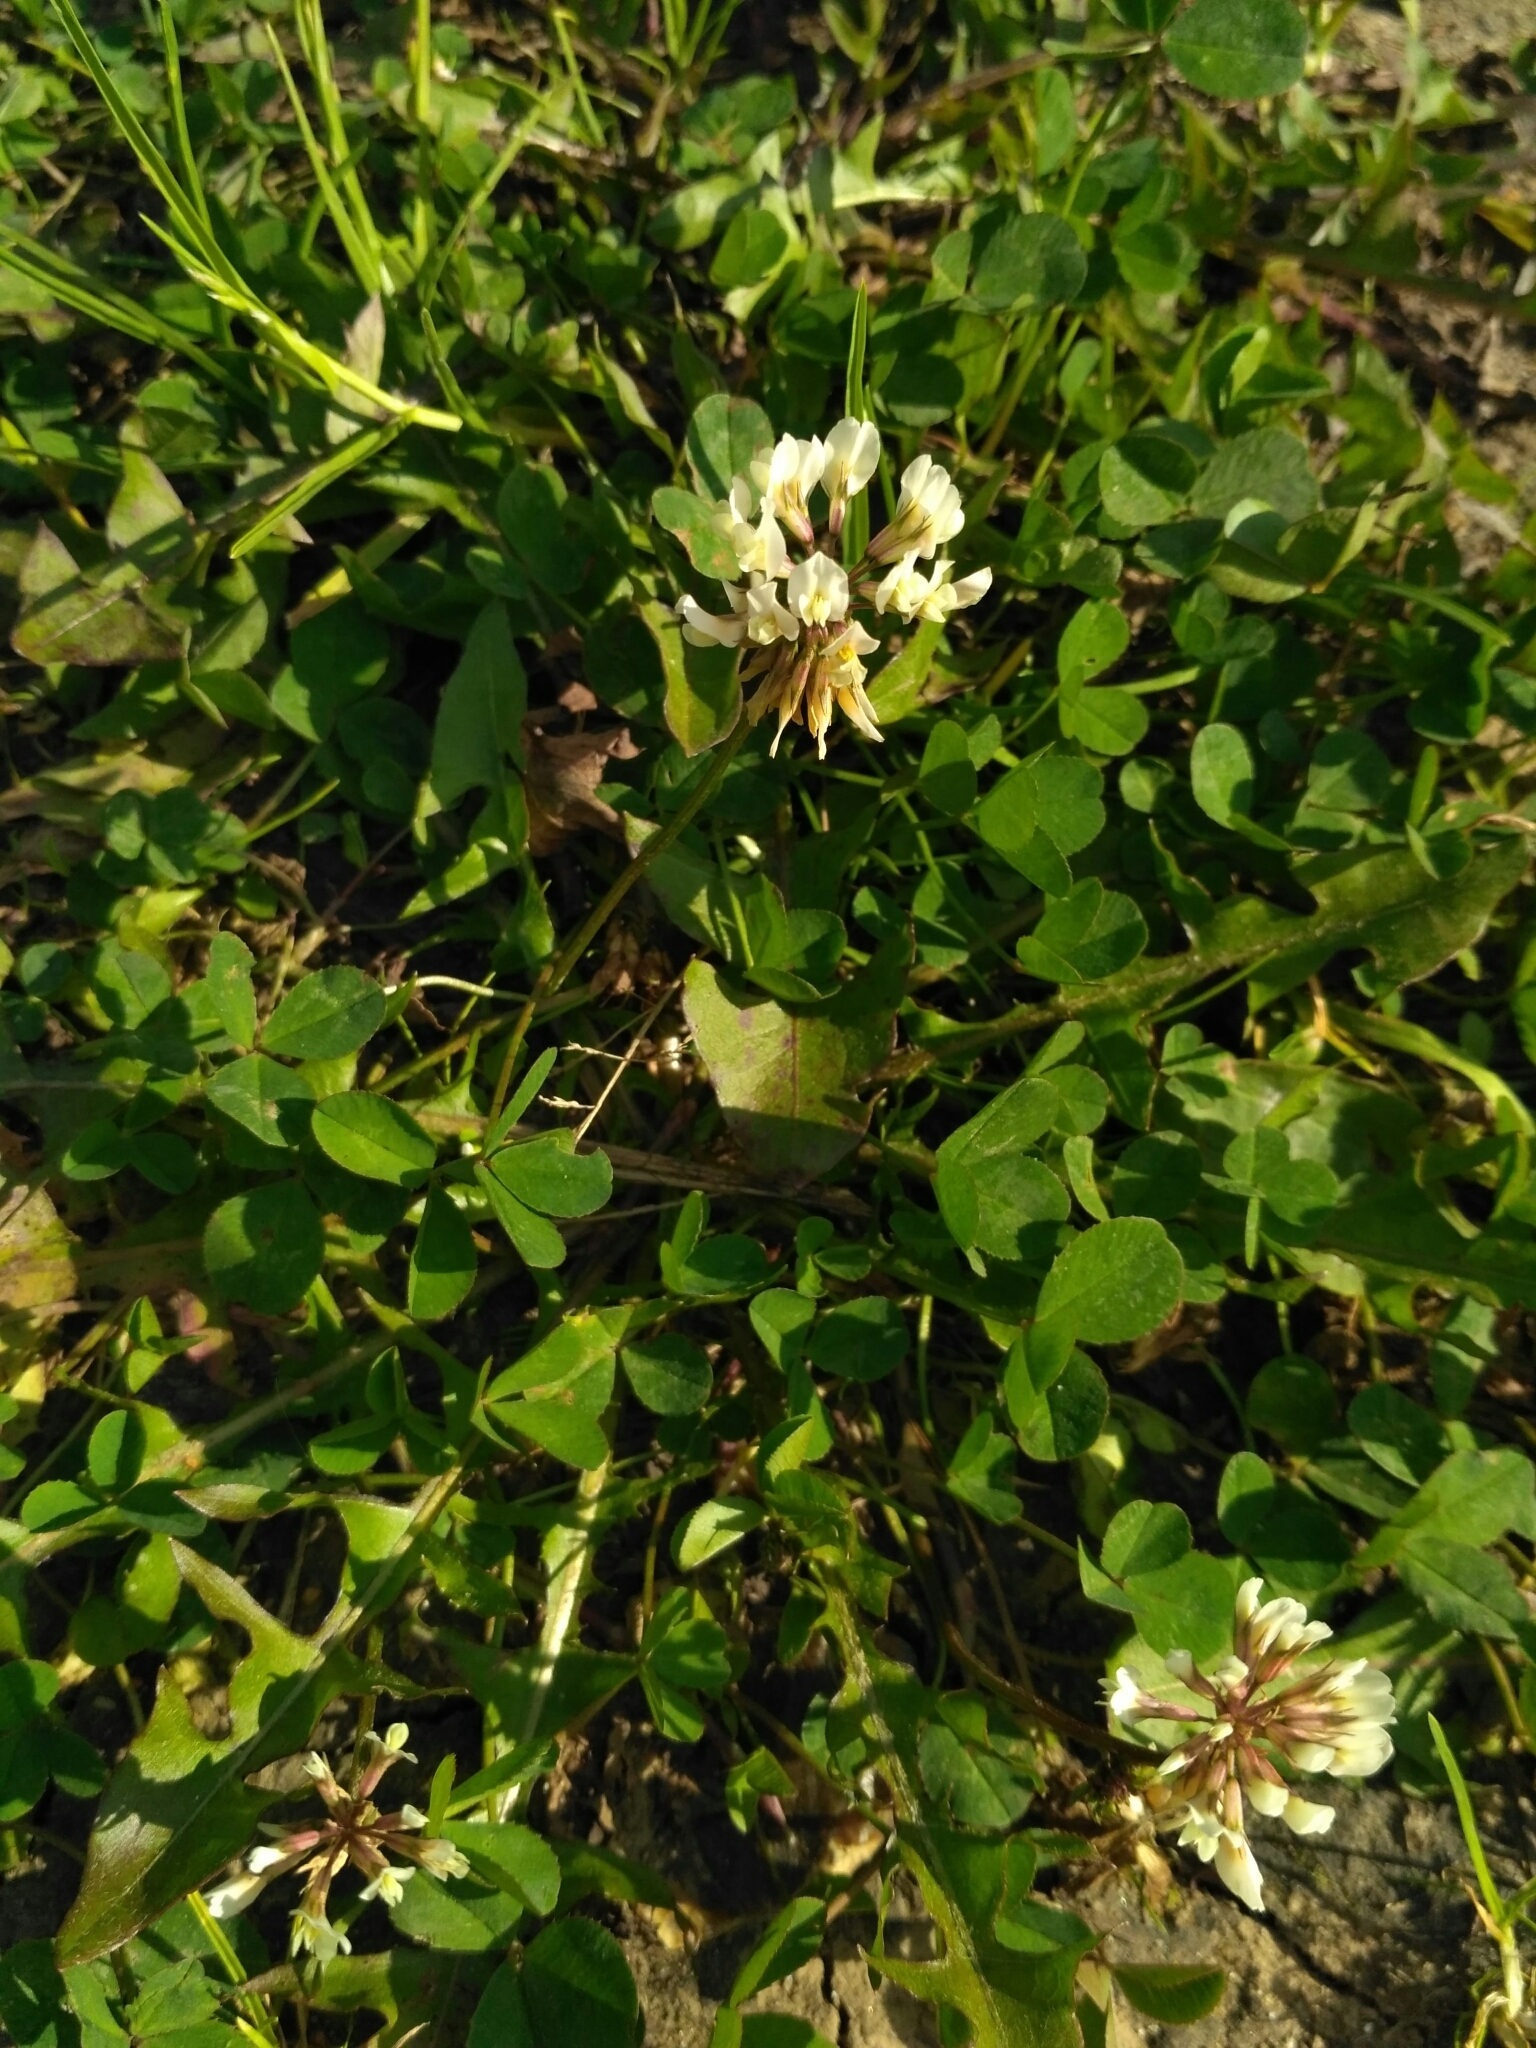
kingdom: Plantae
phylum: Tracheophyta
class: Magnoliopsida
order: Fabales
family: Fabaceae
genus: Trifolium
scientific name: Trifolium repens
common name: White clover
